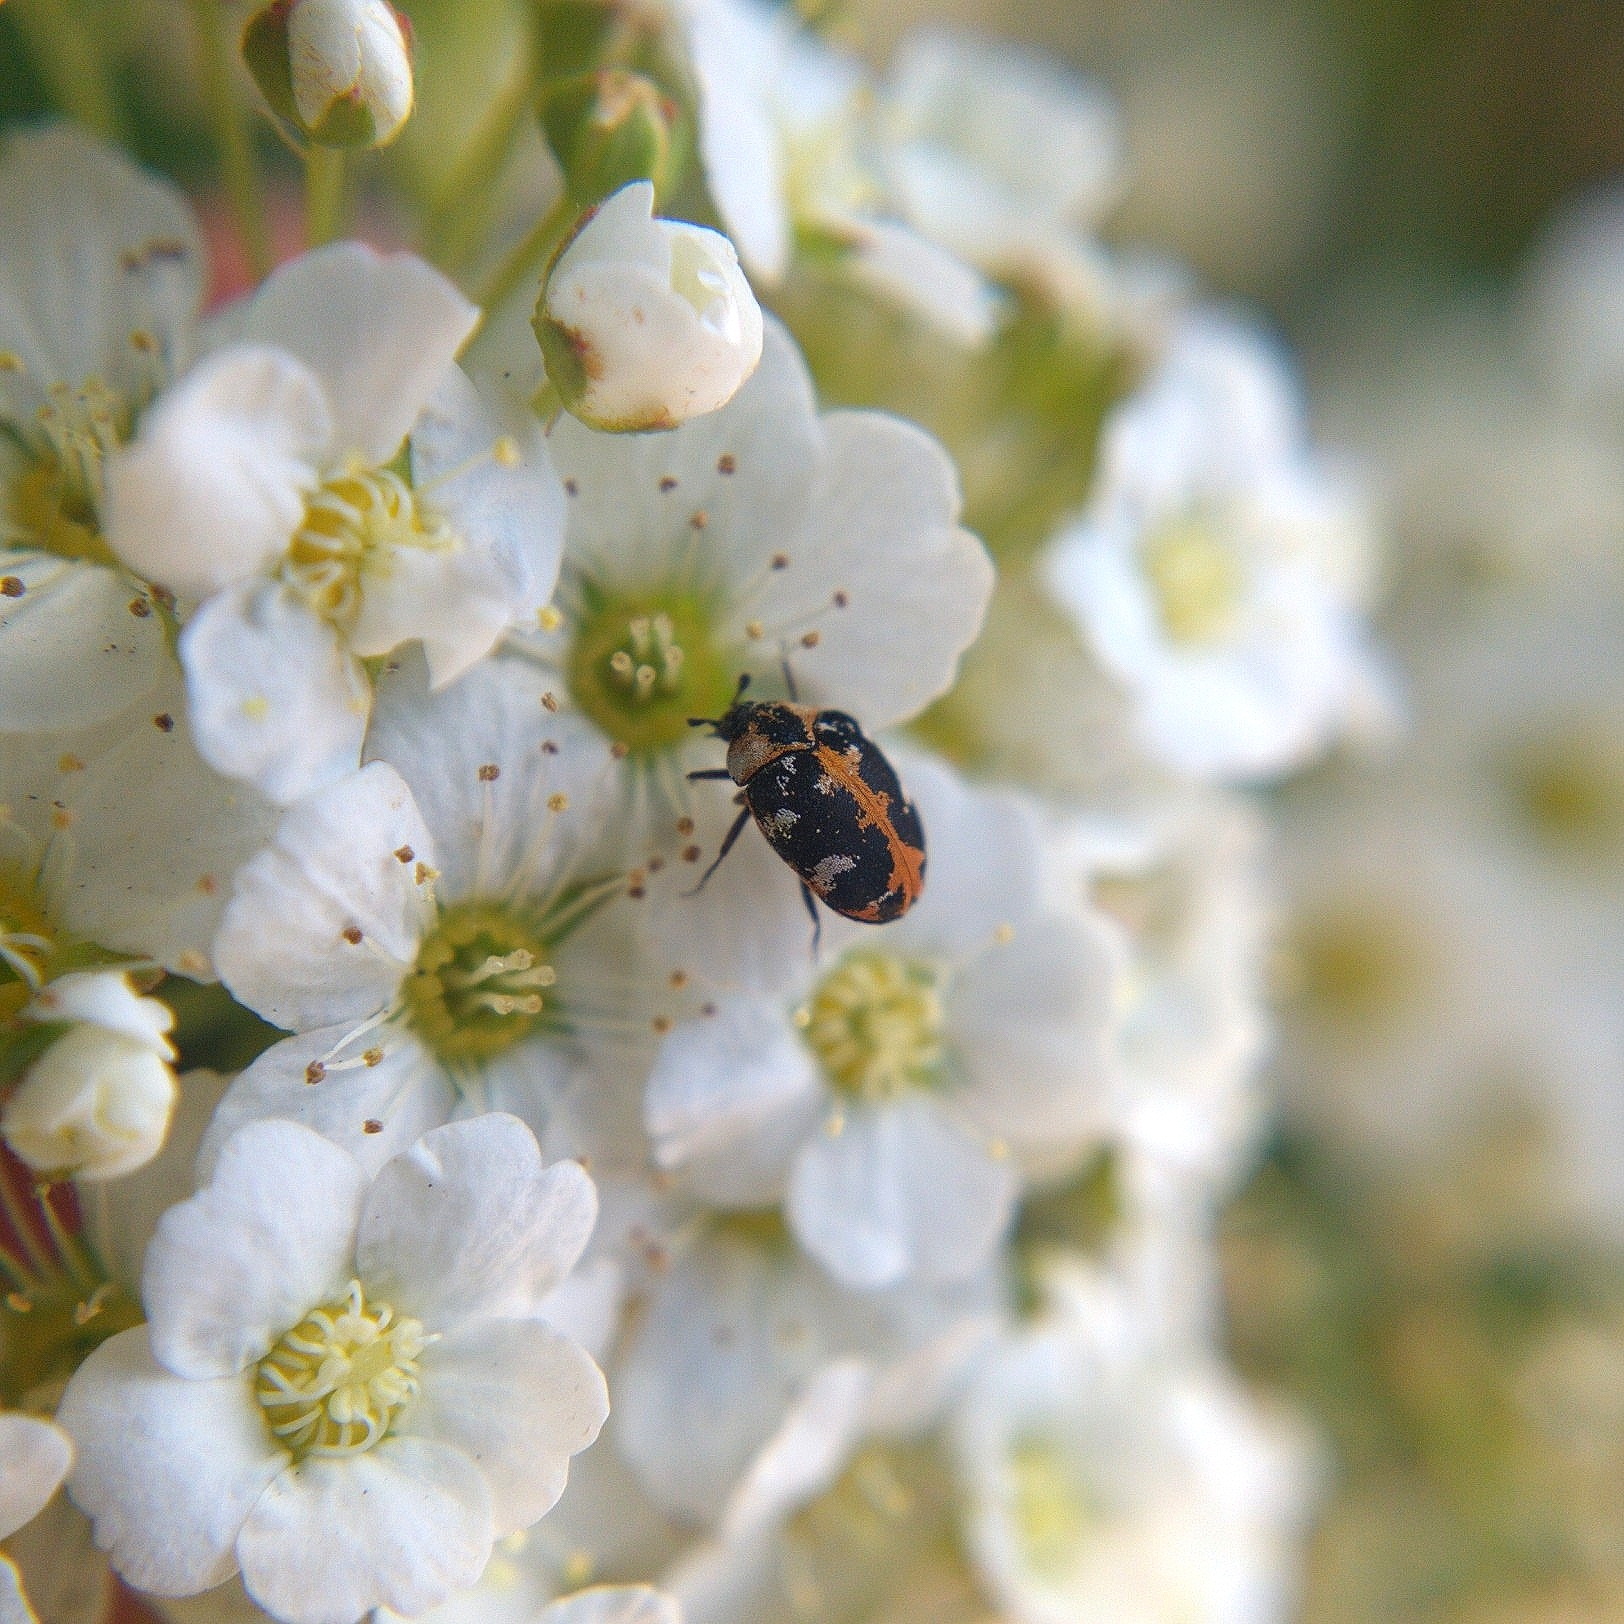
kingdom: Animalia
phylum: Arthropoda
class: Insecta
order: Coleoptera
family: Dermestidae
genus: Anthrenus
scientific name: Anthrenus scrophulariae
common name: Buffalo carpet beetle
